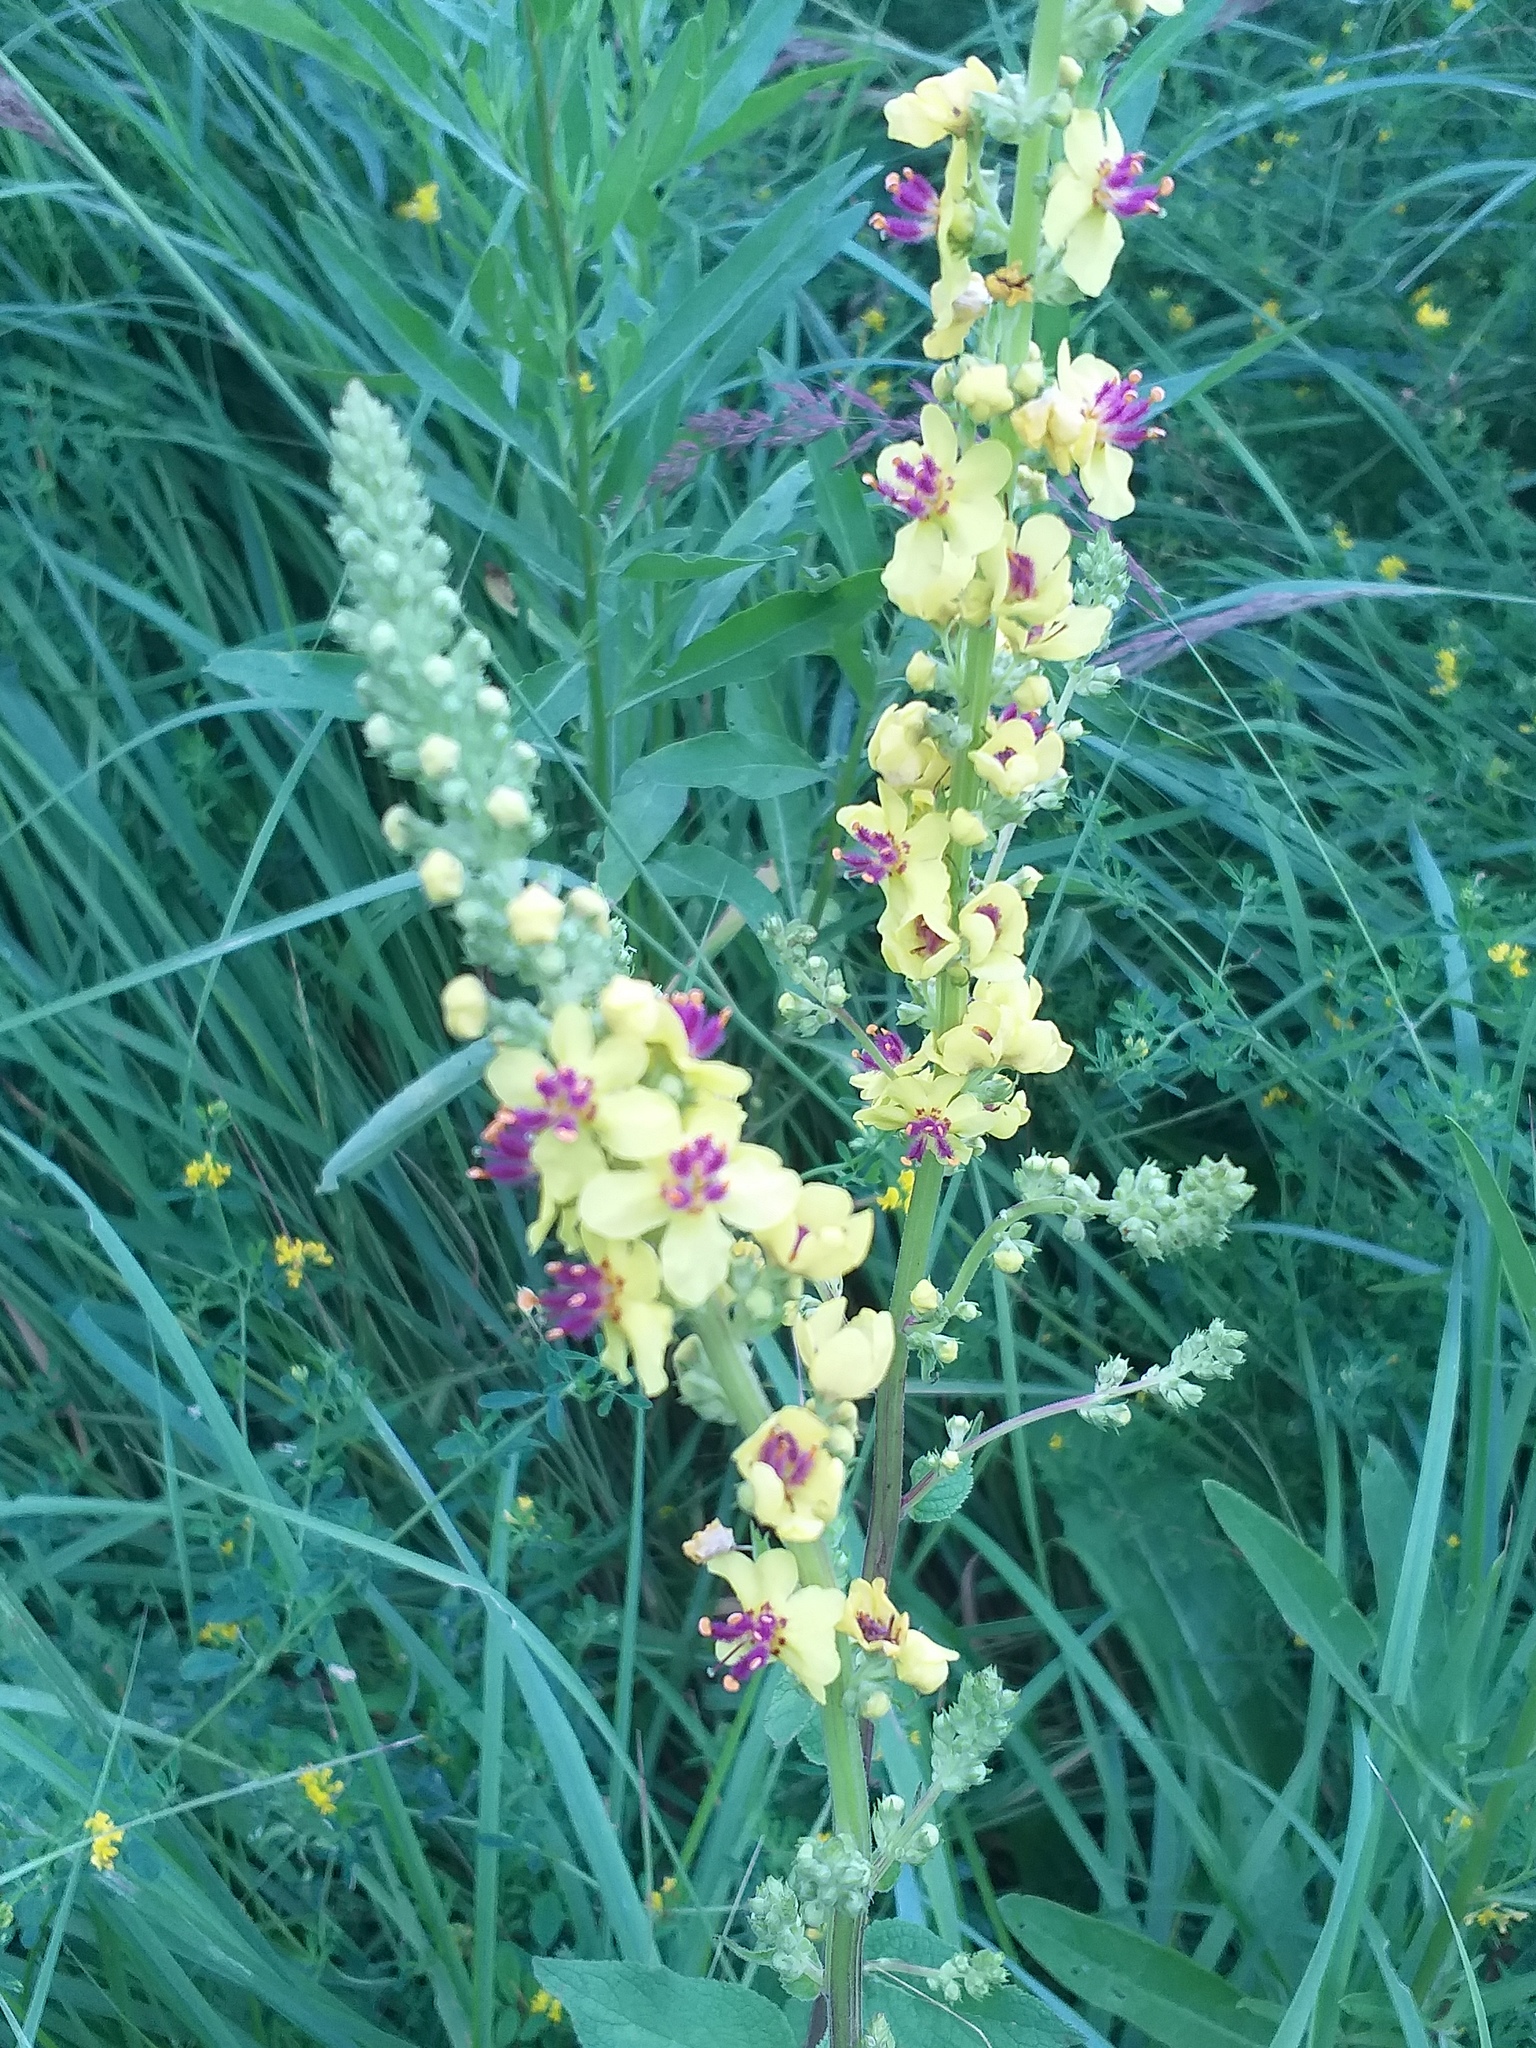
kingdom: Plantae
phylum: Tracheophyta
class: Magnoliopsida
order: Lamiales
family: Scrophulariaceae
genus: Verbascum
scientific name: Verbascum nigrum
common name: Dark mullein
